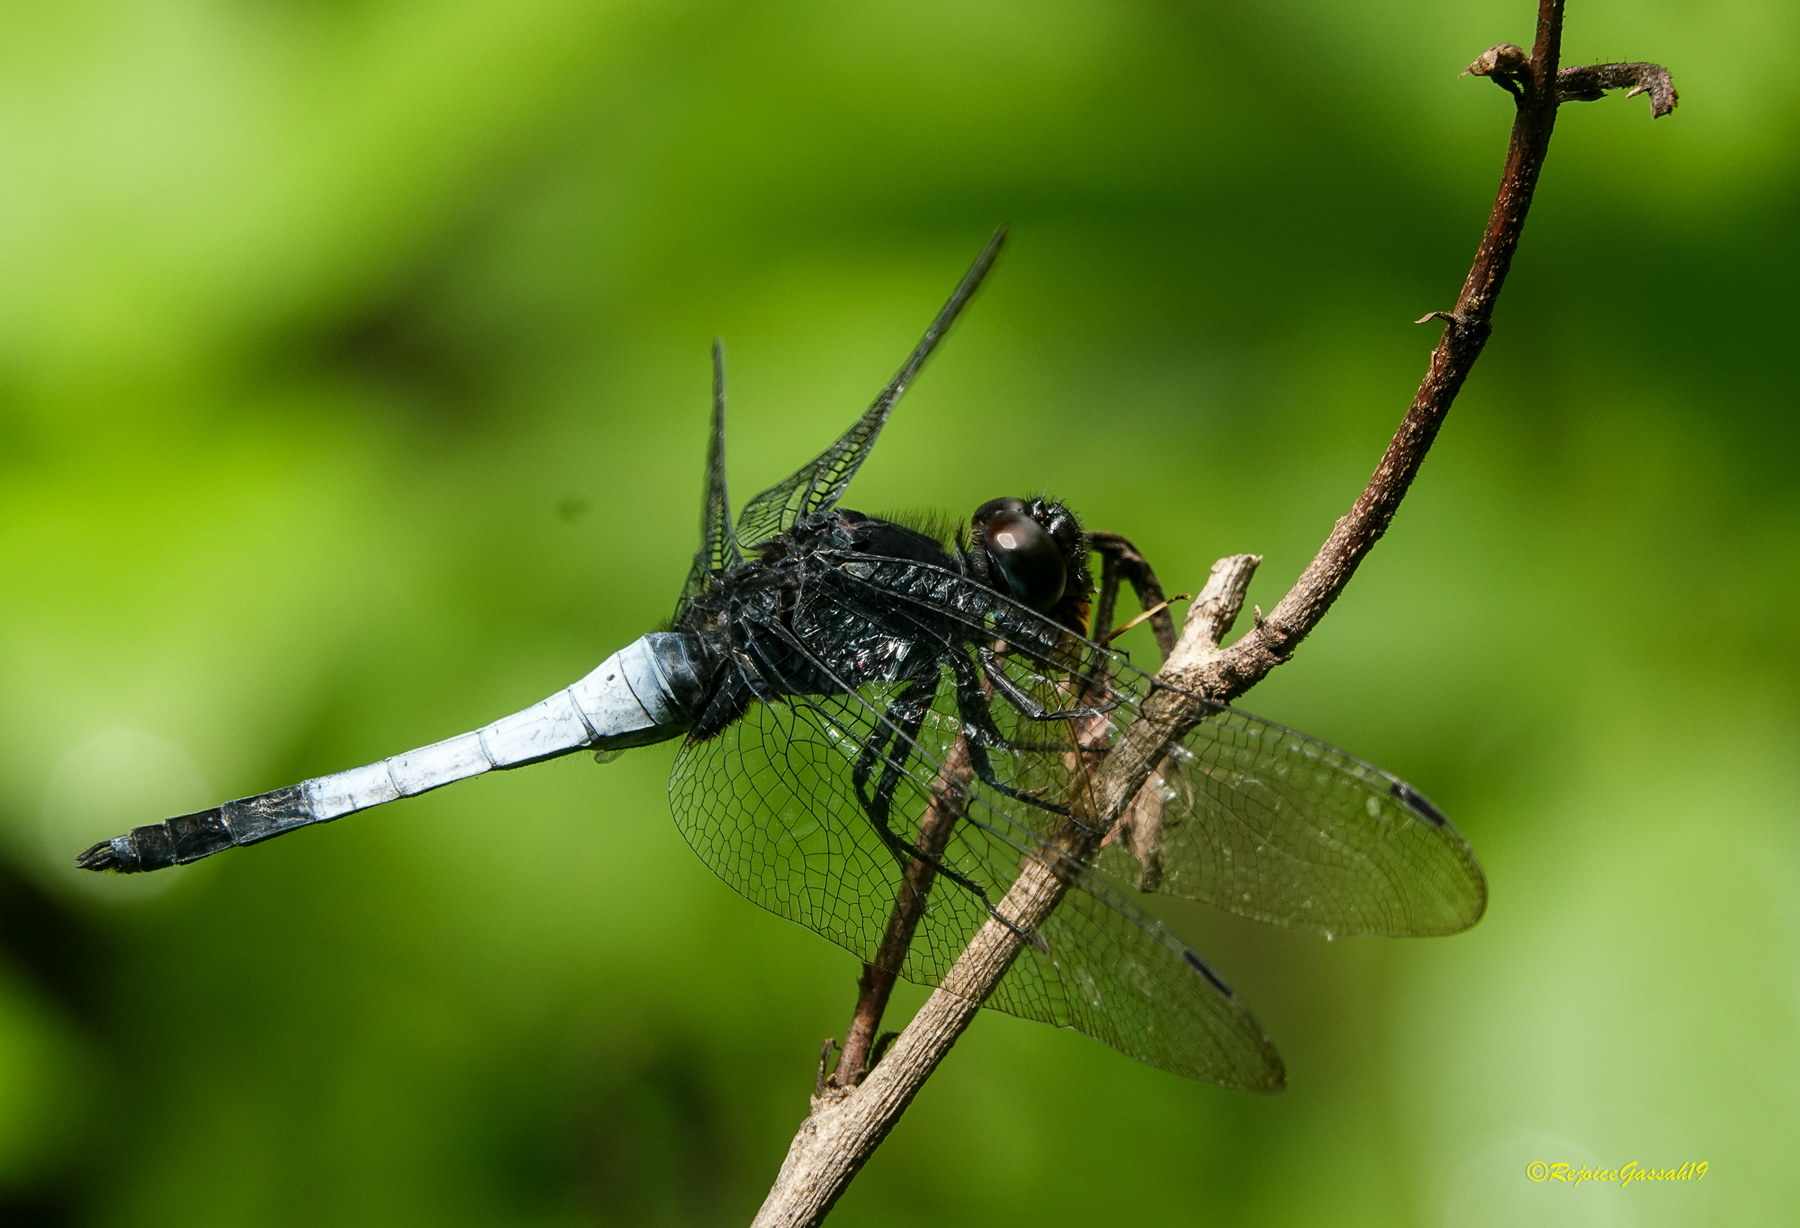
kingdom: Animalia
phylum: Arthropoda
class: Insecta
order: Odonata
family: Libellulidae
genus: Orthetrum
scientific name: Orthetrum triangulare
